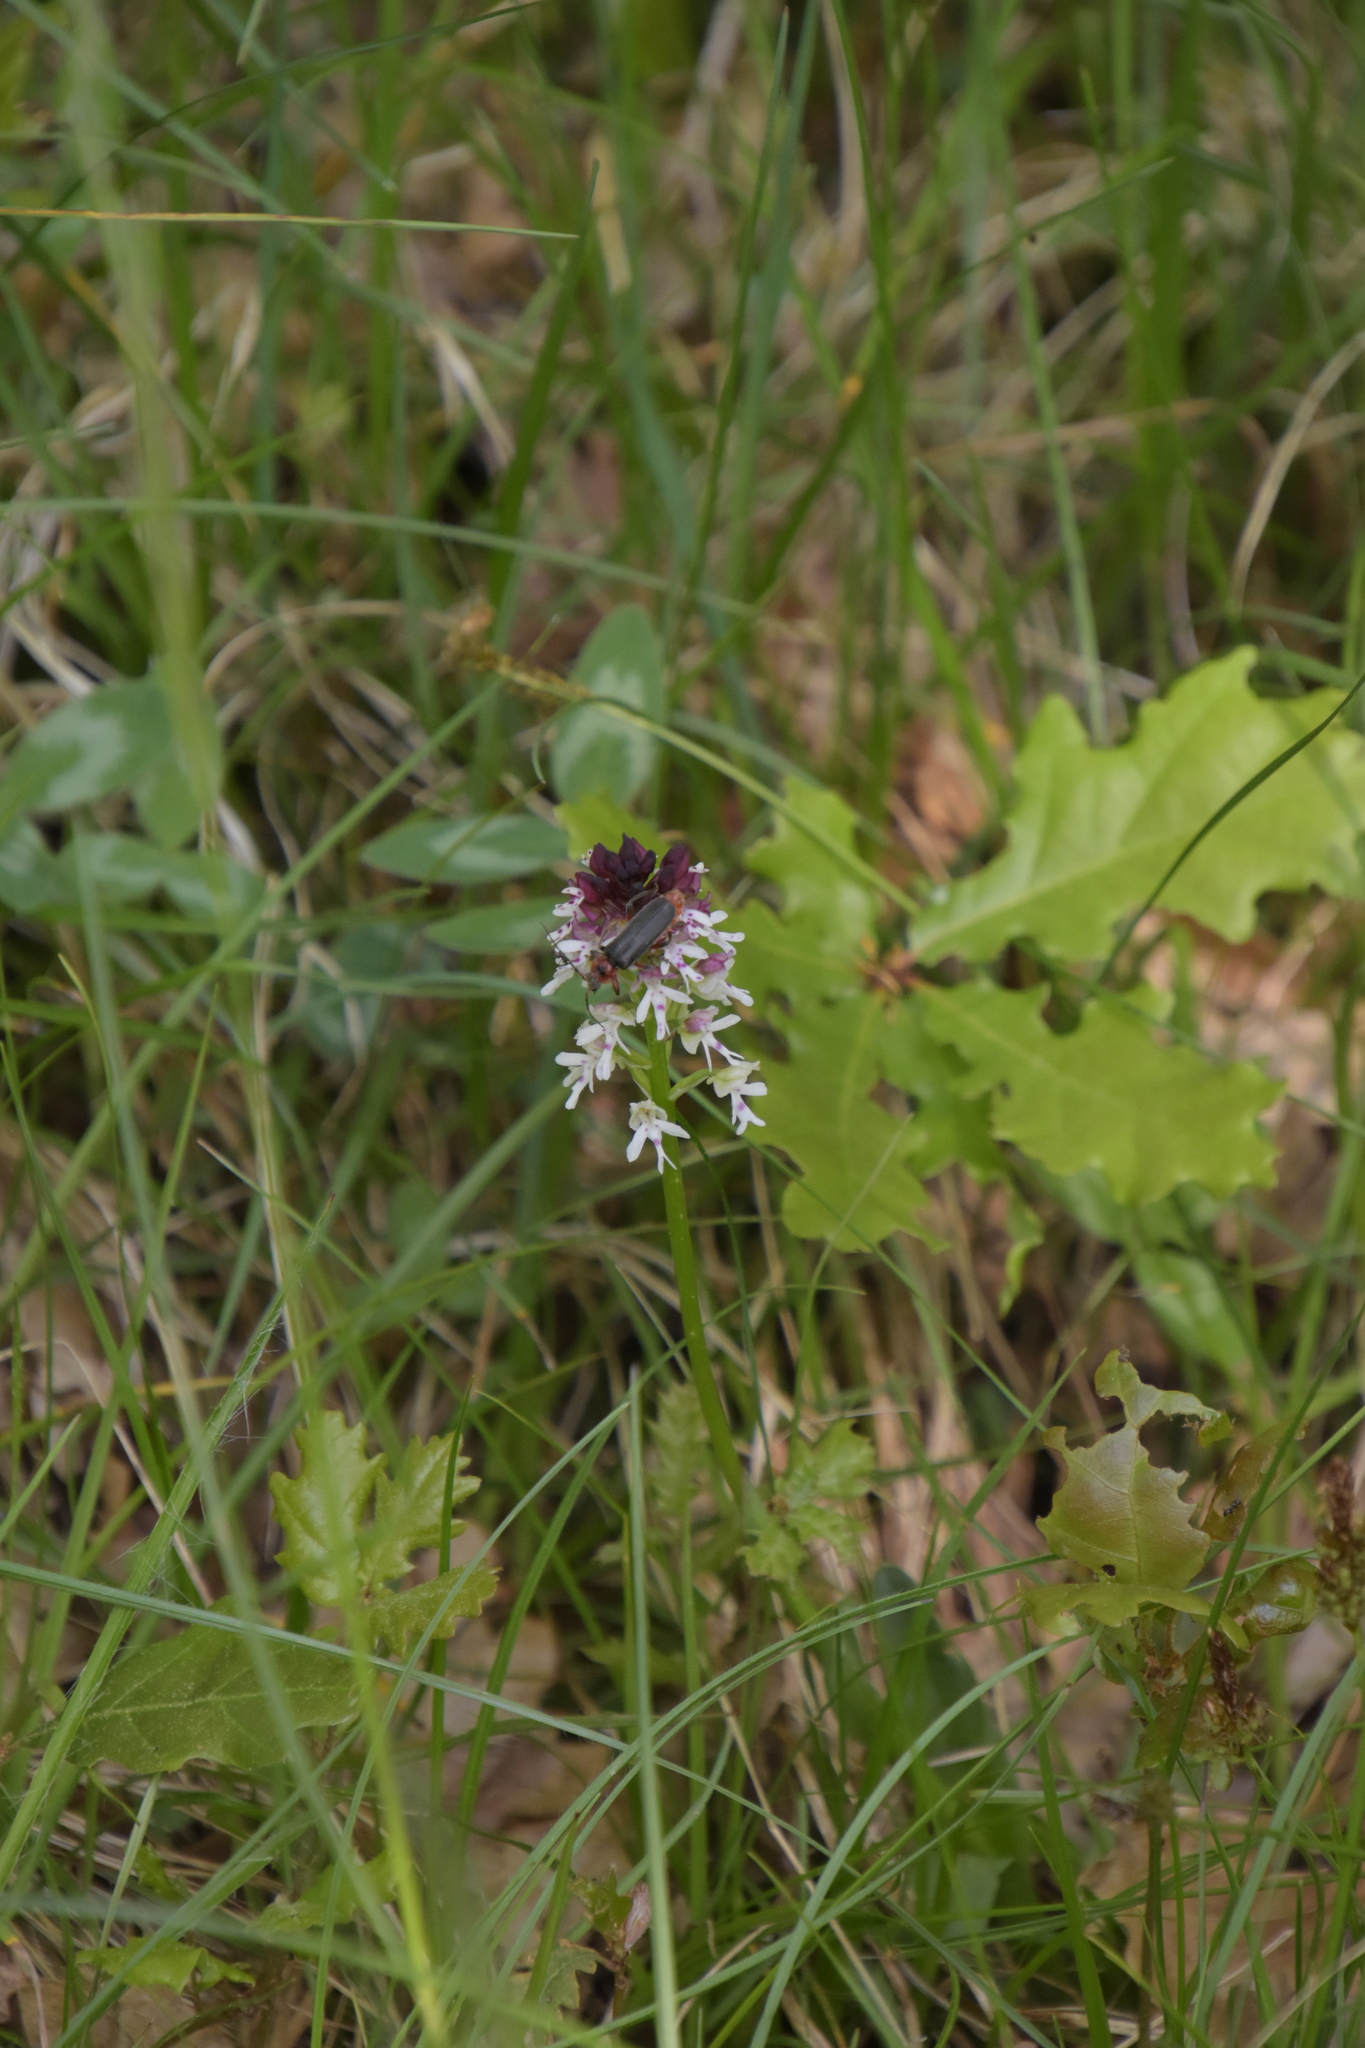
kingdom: Animalia
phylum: Arthropoda
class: Insecta
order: Coleoptera
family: Cantharidae
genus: Cantharis
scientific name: Cantharis rustica
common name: Soldier beetle
